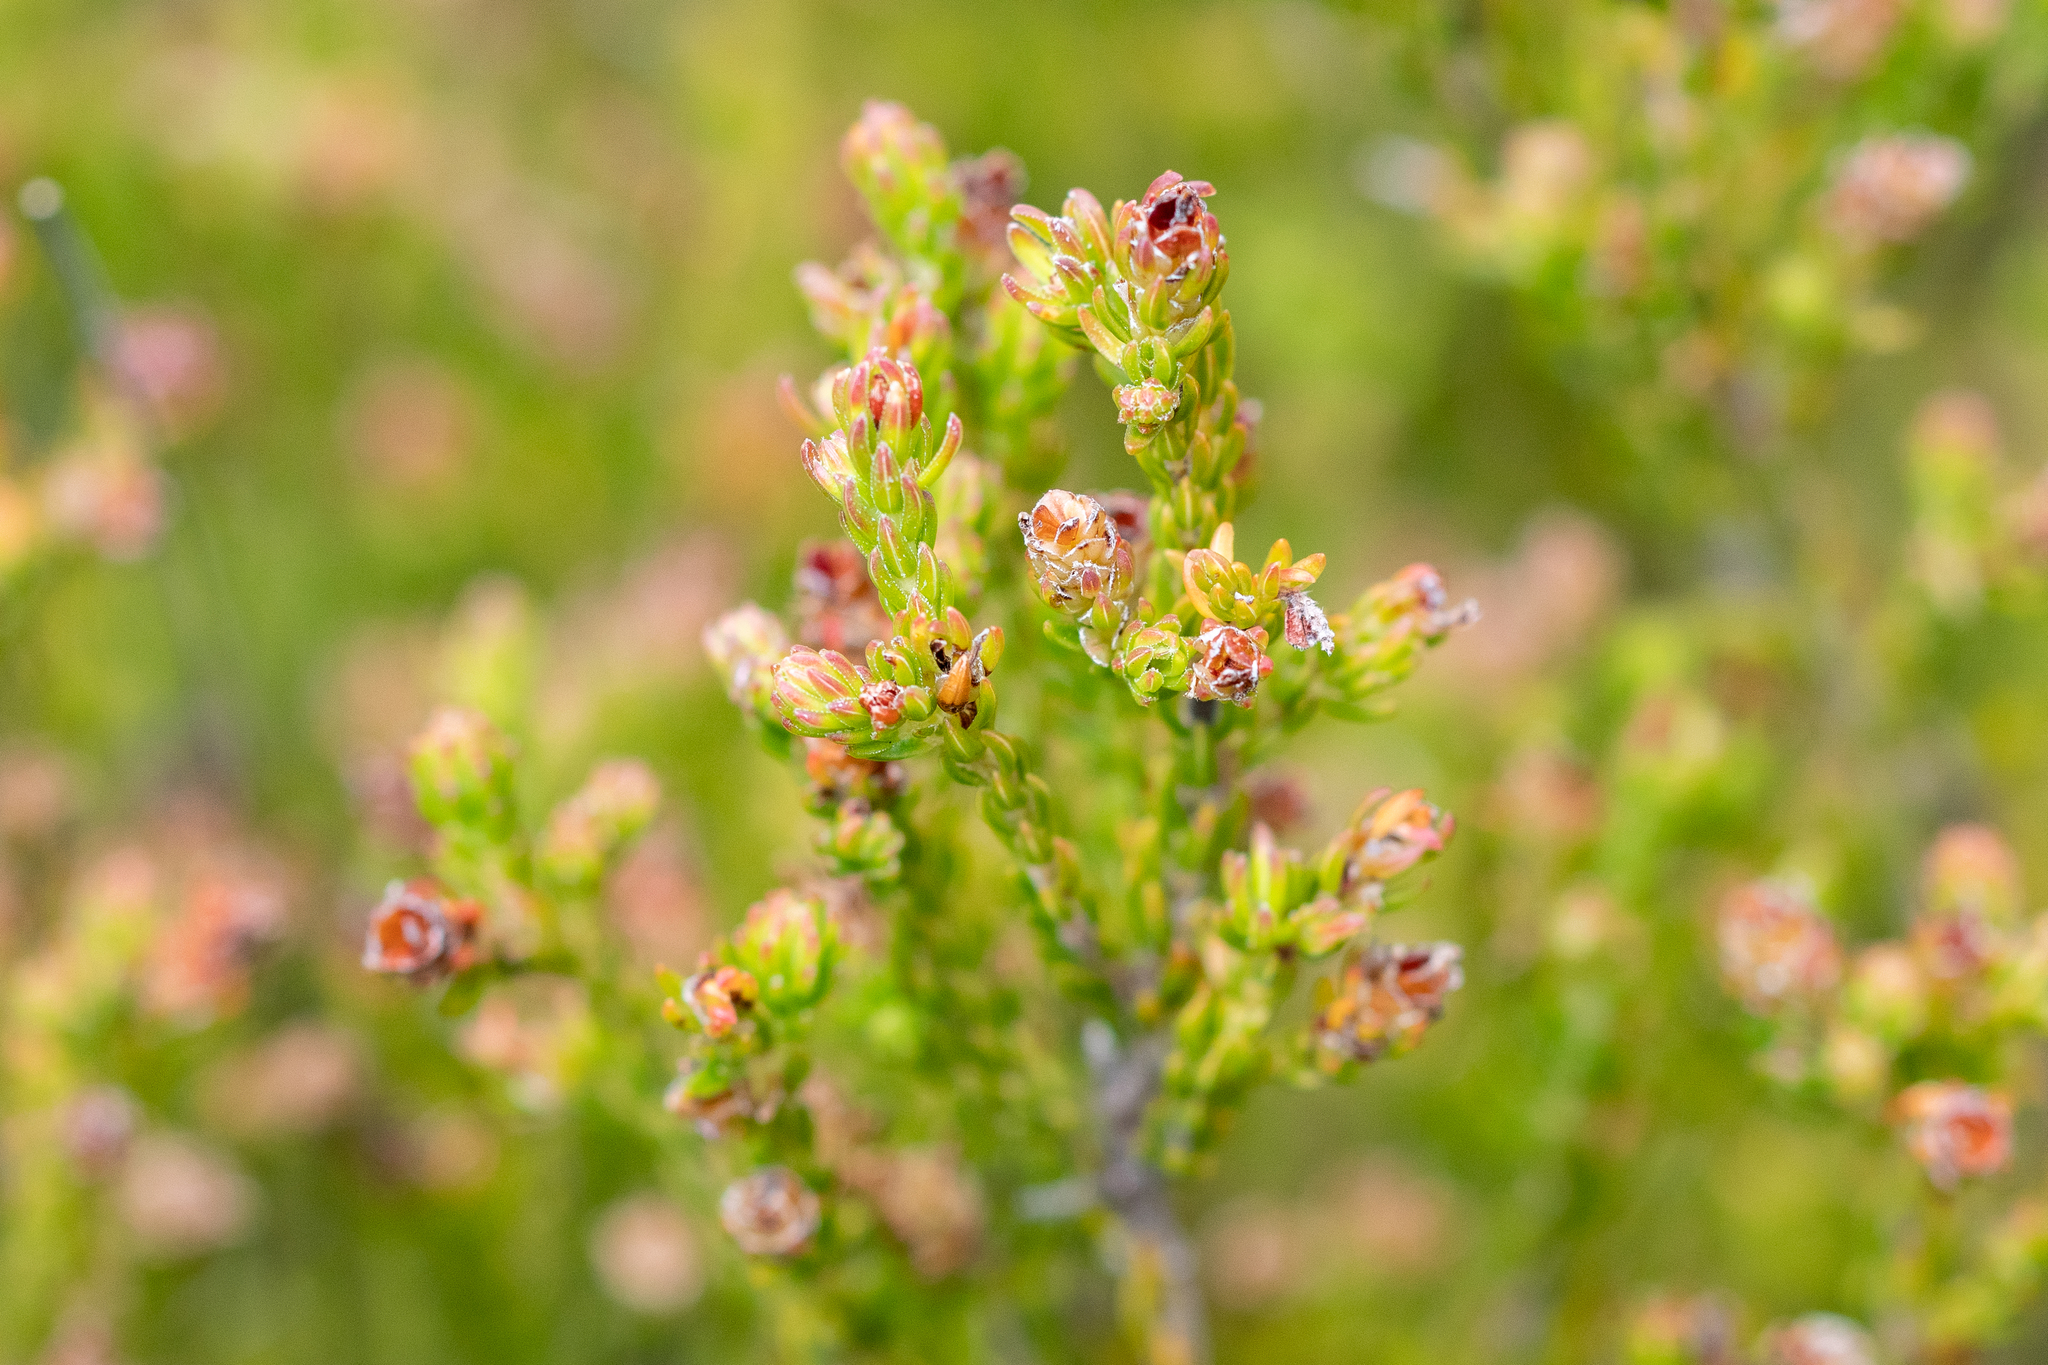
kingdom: Plantae
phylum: Tracheophyta
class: Magnoliopsida
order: Ericales
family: Ericaceae
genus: Erica
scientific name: Erica labialis
